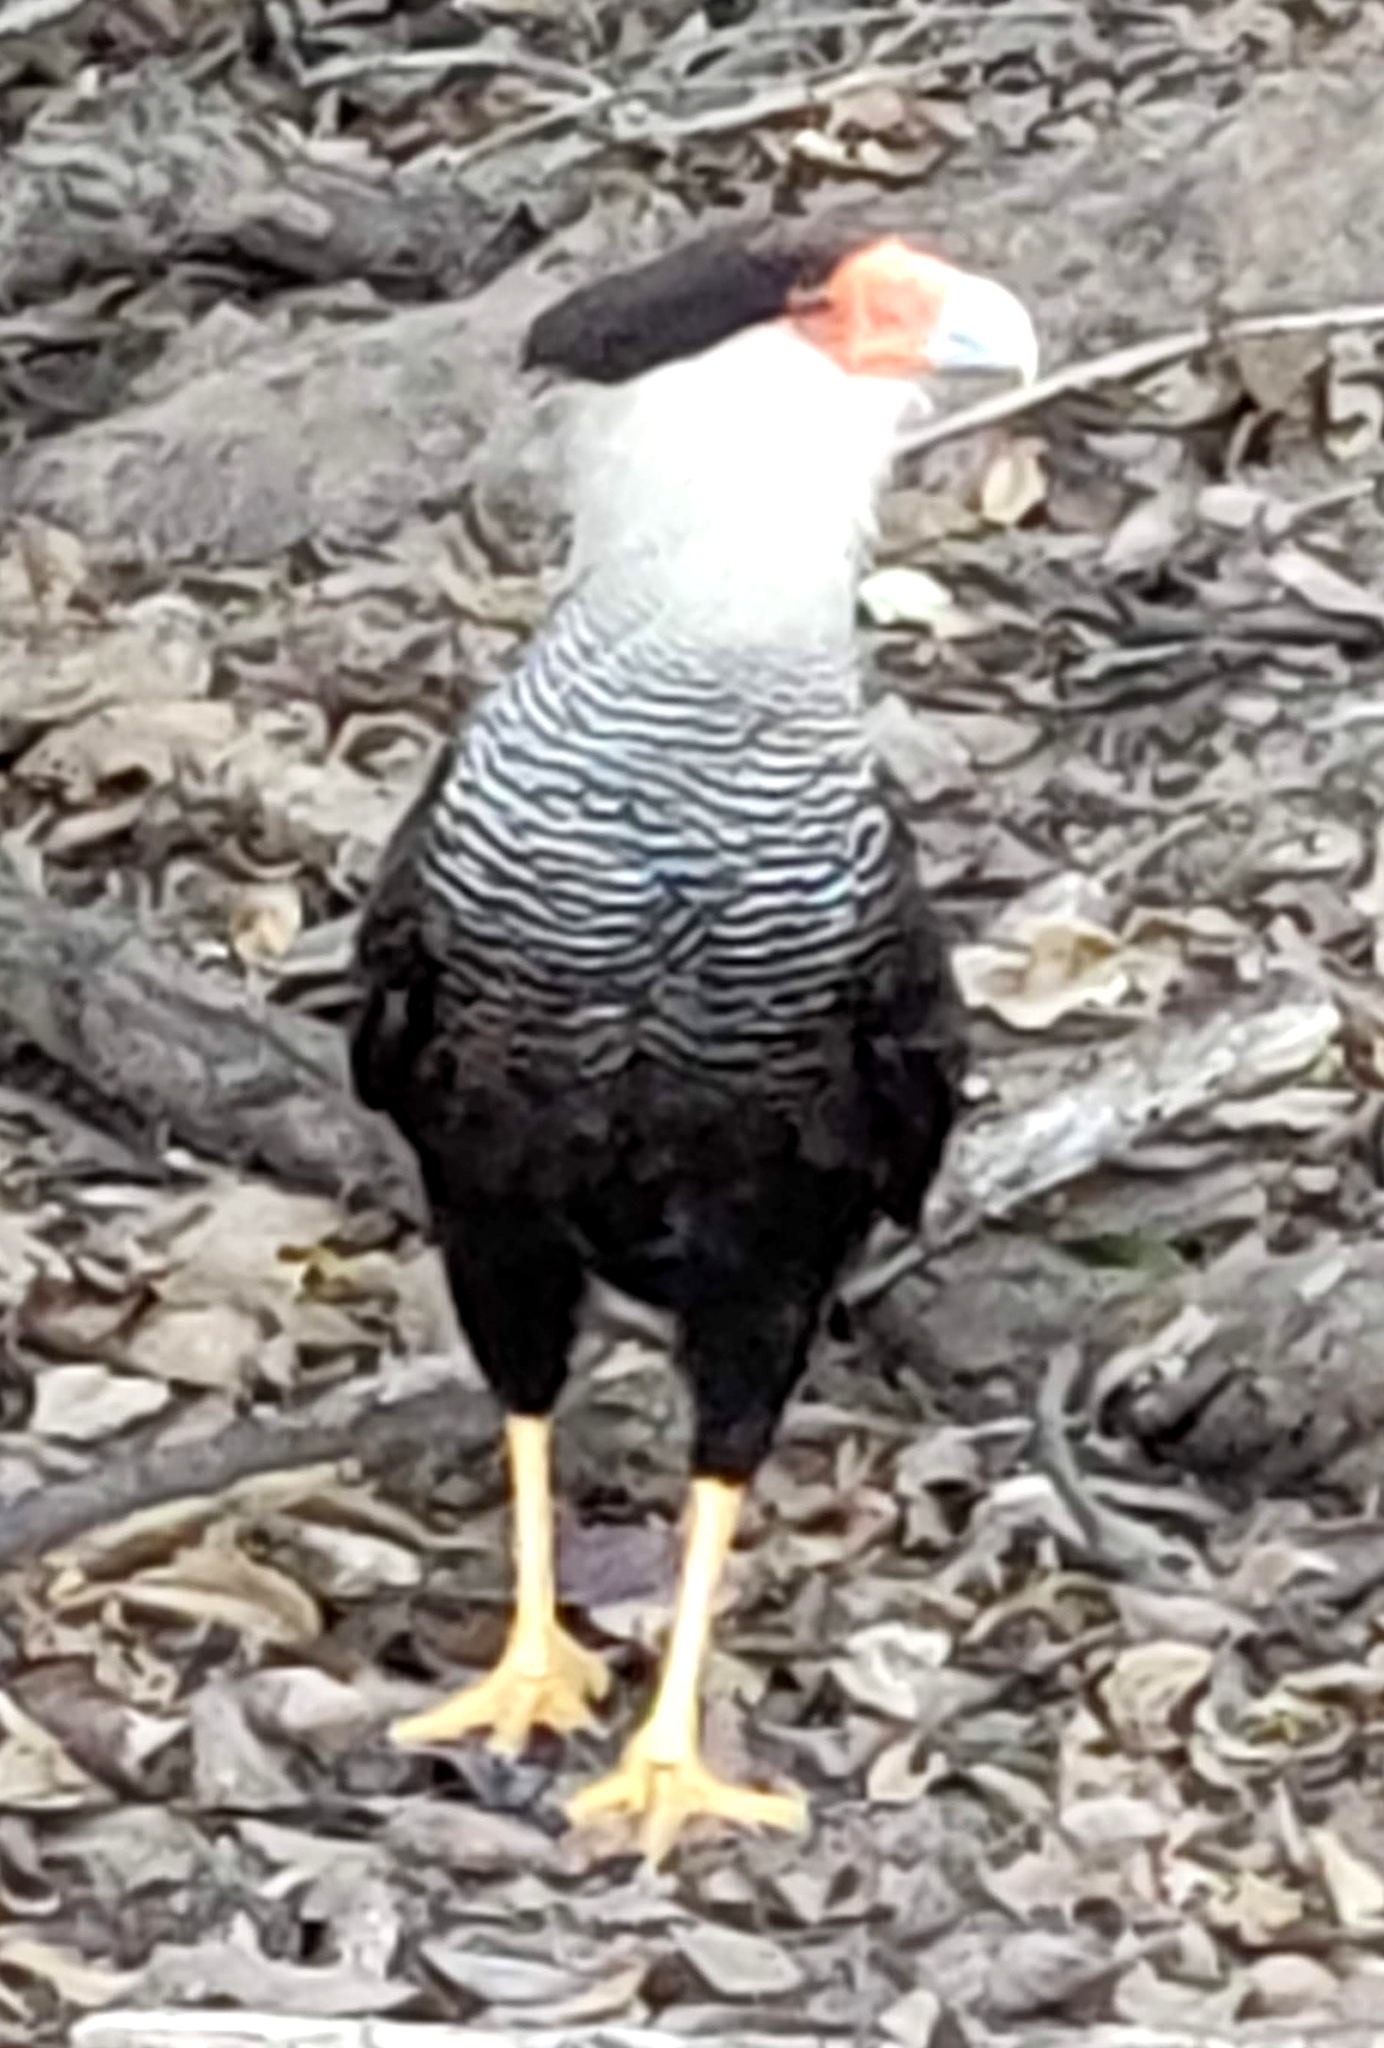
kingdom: Animalia
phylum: Chordata
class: Aves
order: Falconiformes
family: Falconidae
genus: Caracara
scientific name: Caracara plancus
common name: Southern caracara
